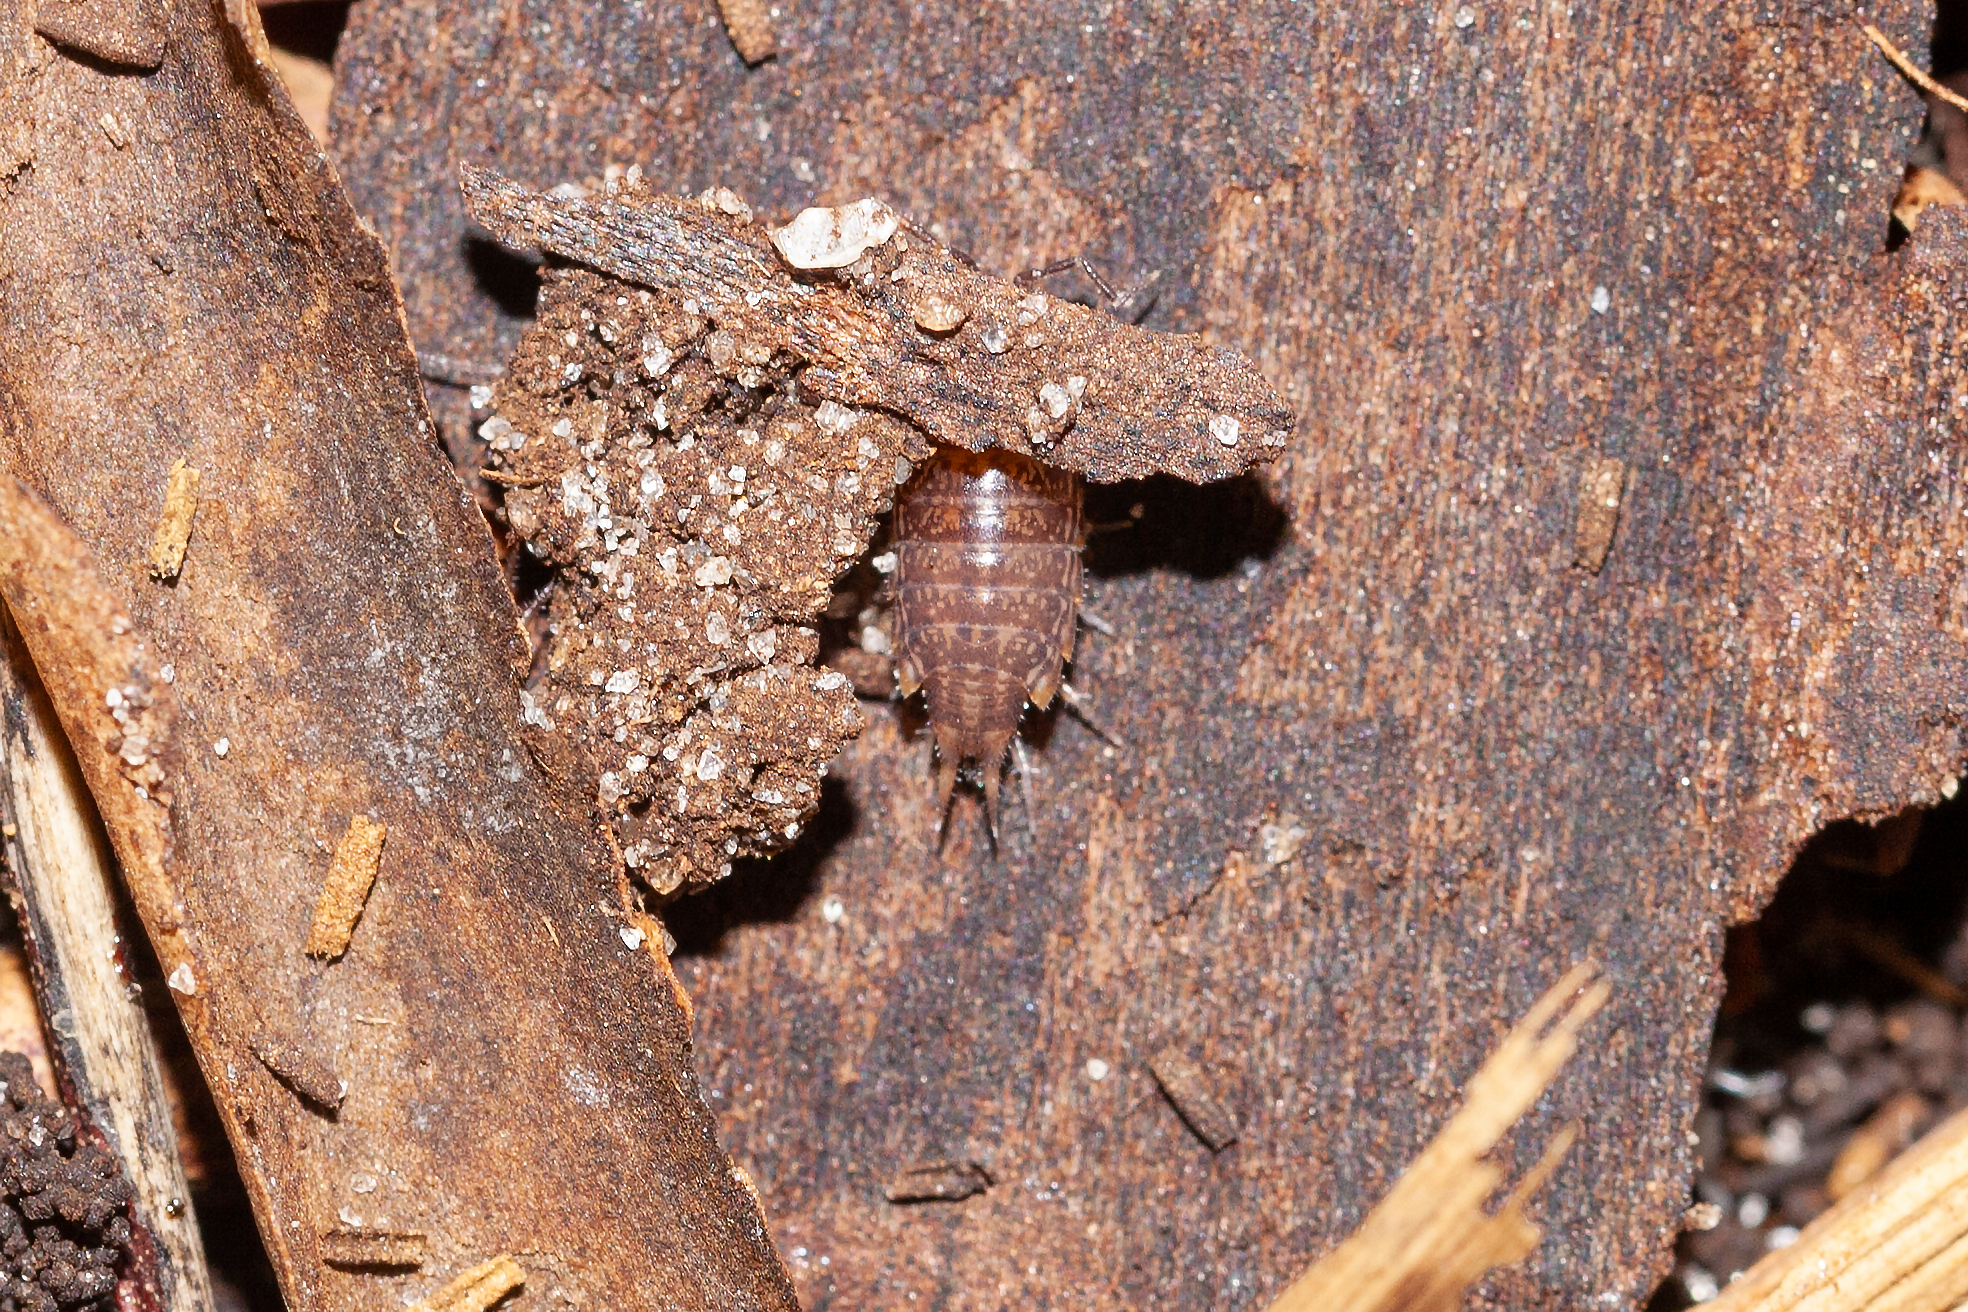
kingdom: Animalia
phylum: Arthropoda
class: Malacostraca
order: Isopoda
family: Philosciidae
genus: Atlantoscia
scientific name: Atlantoscia floridana
